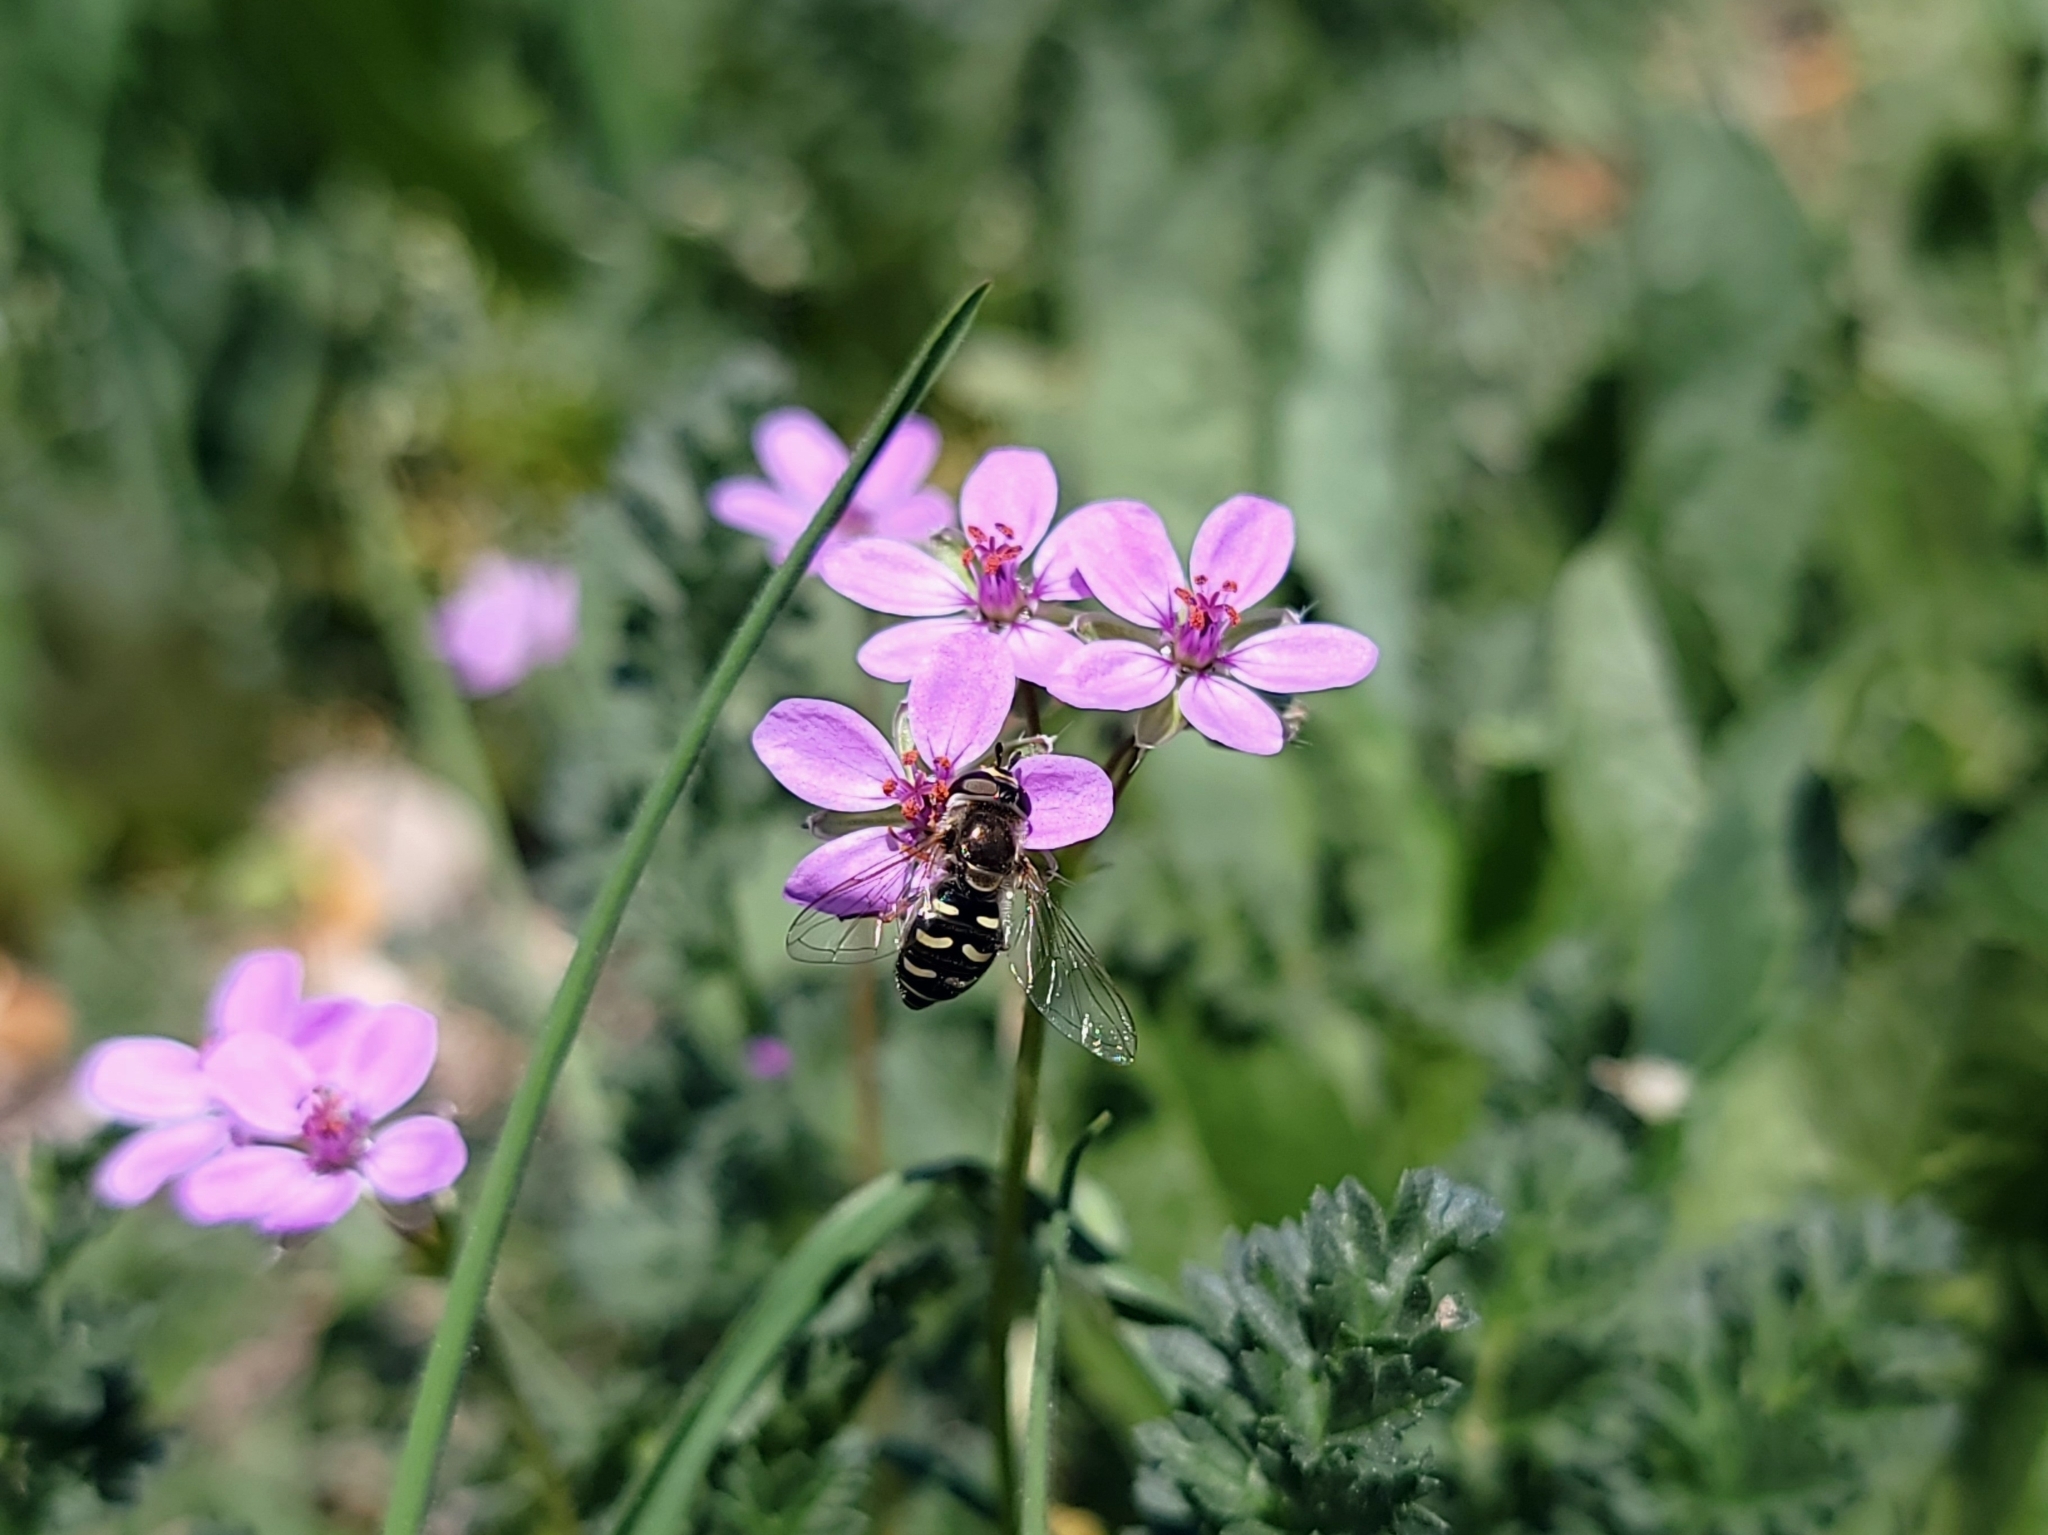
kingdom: Animalia
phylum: Arthropoda
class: Insecta
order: Diptera
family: Syrphidae
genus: Eupeodes
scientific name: Eupeodes volucris
